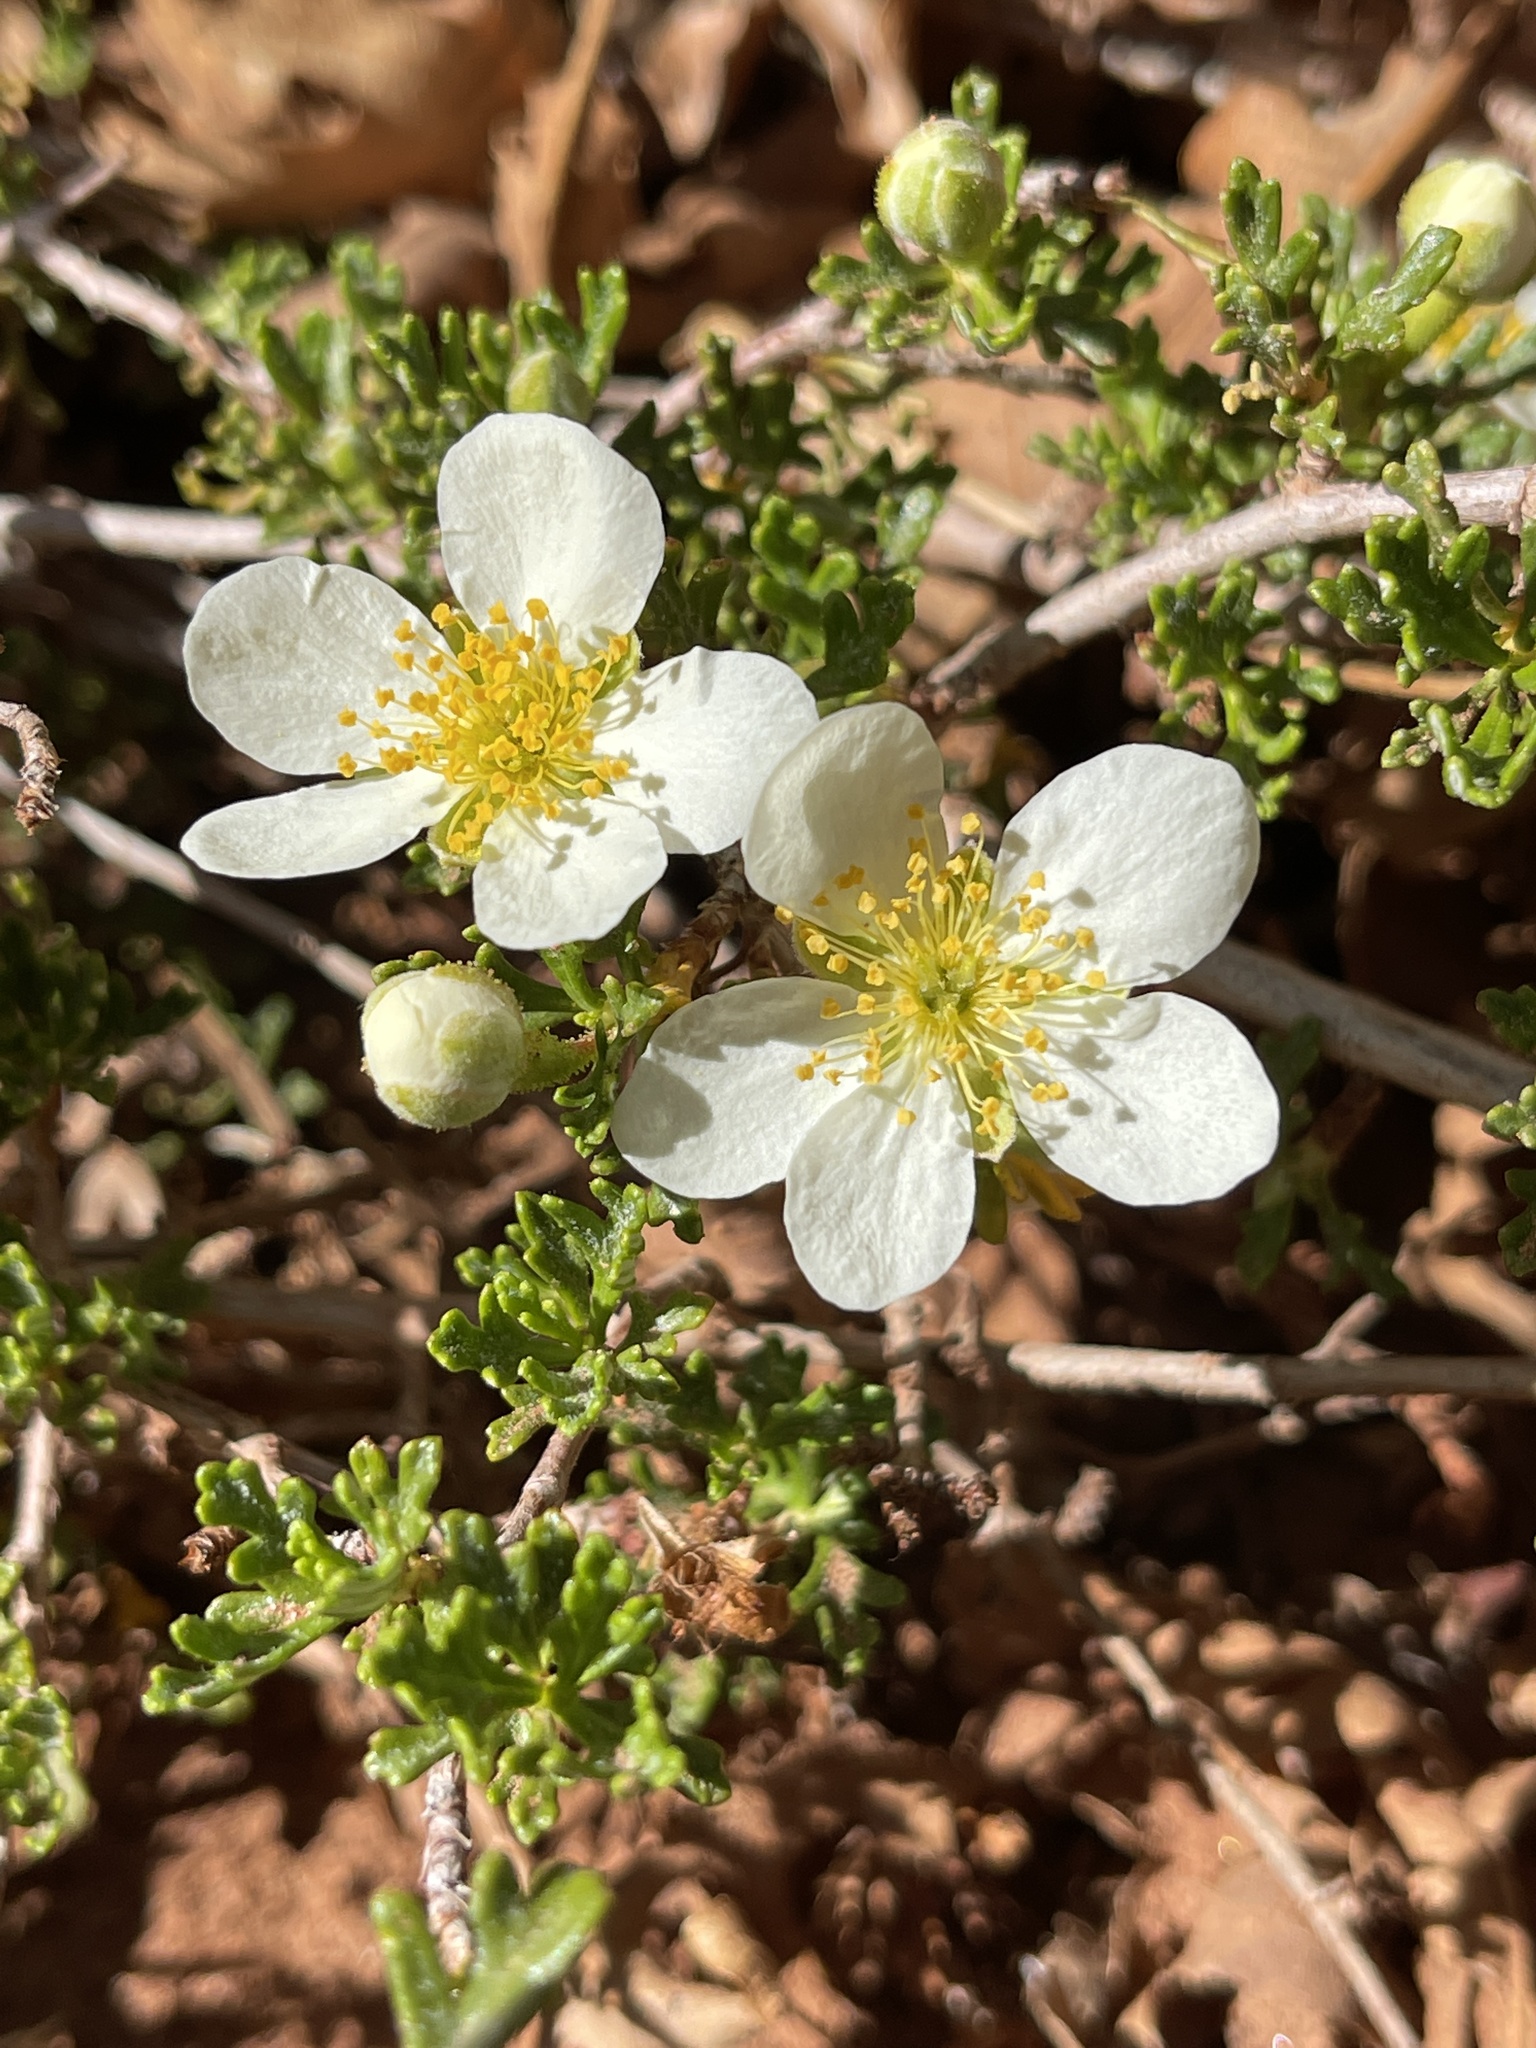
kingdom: Plantae
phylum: Tracheophyta
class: Magnoliopsida
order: Rosales
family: Rosaceae
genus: Purshia
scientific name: Purshia stansburiana
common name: Stansbury's cliffrose
